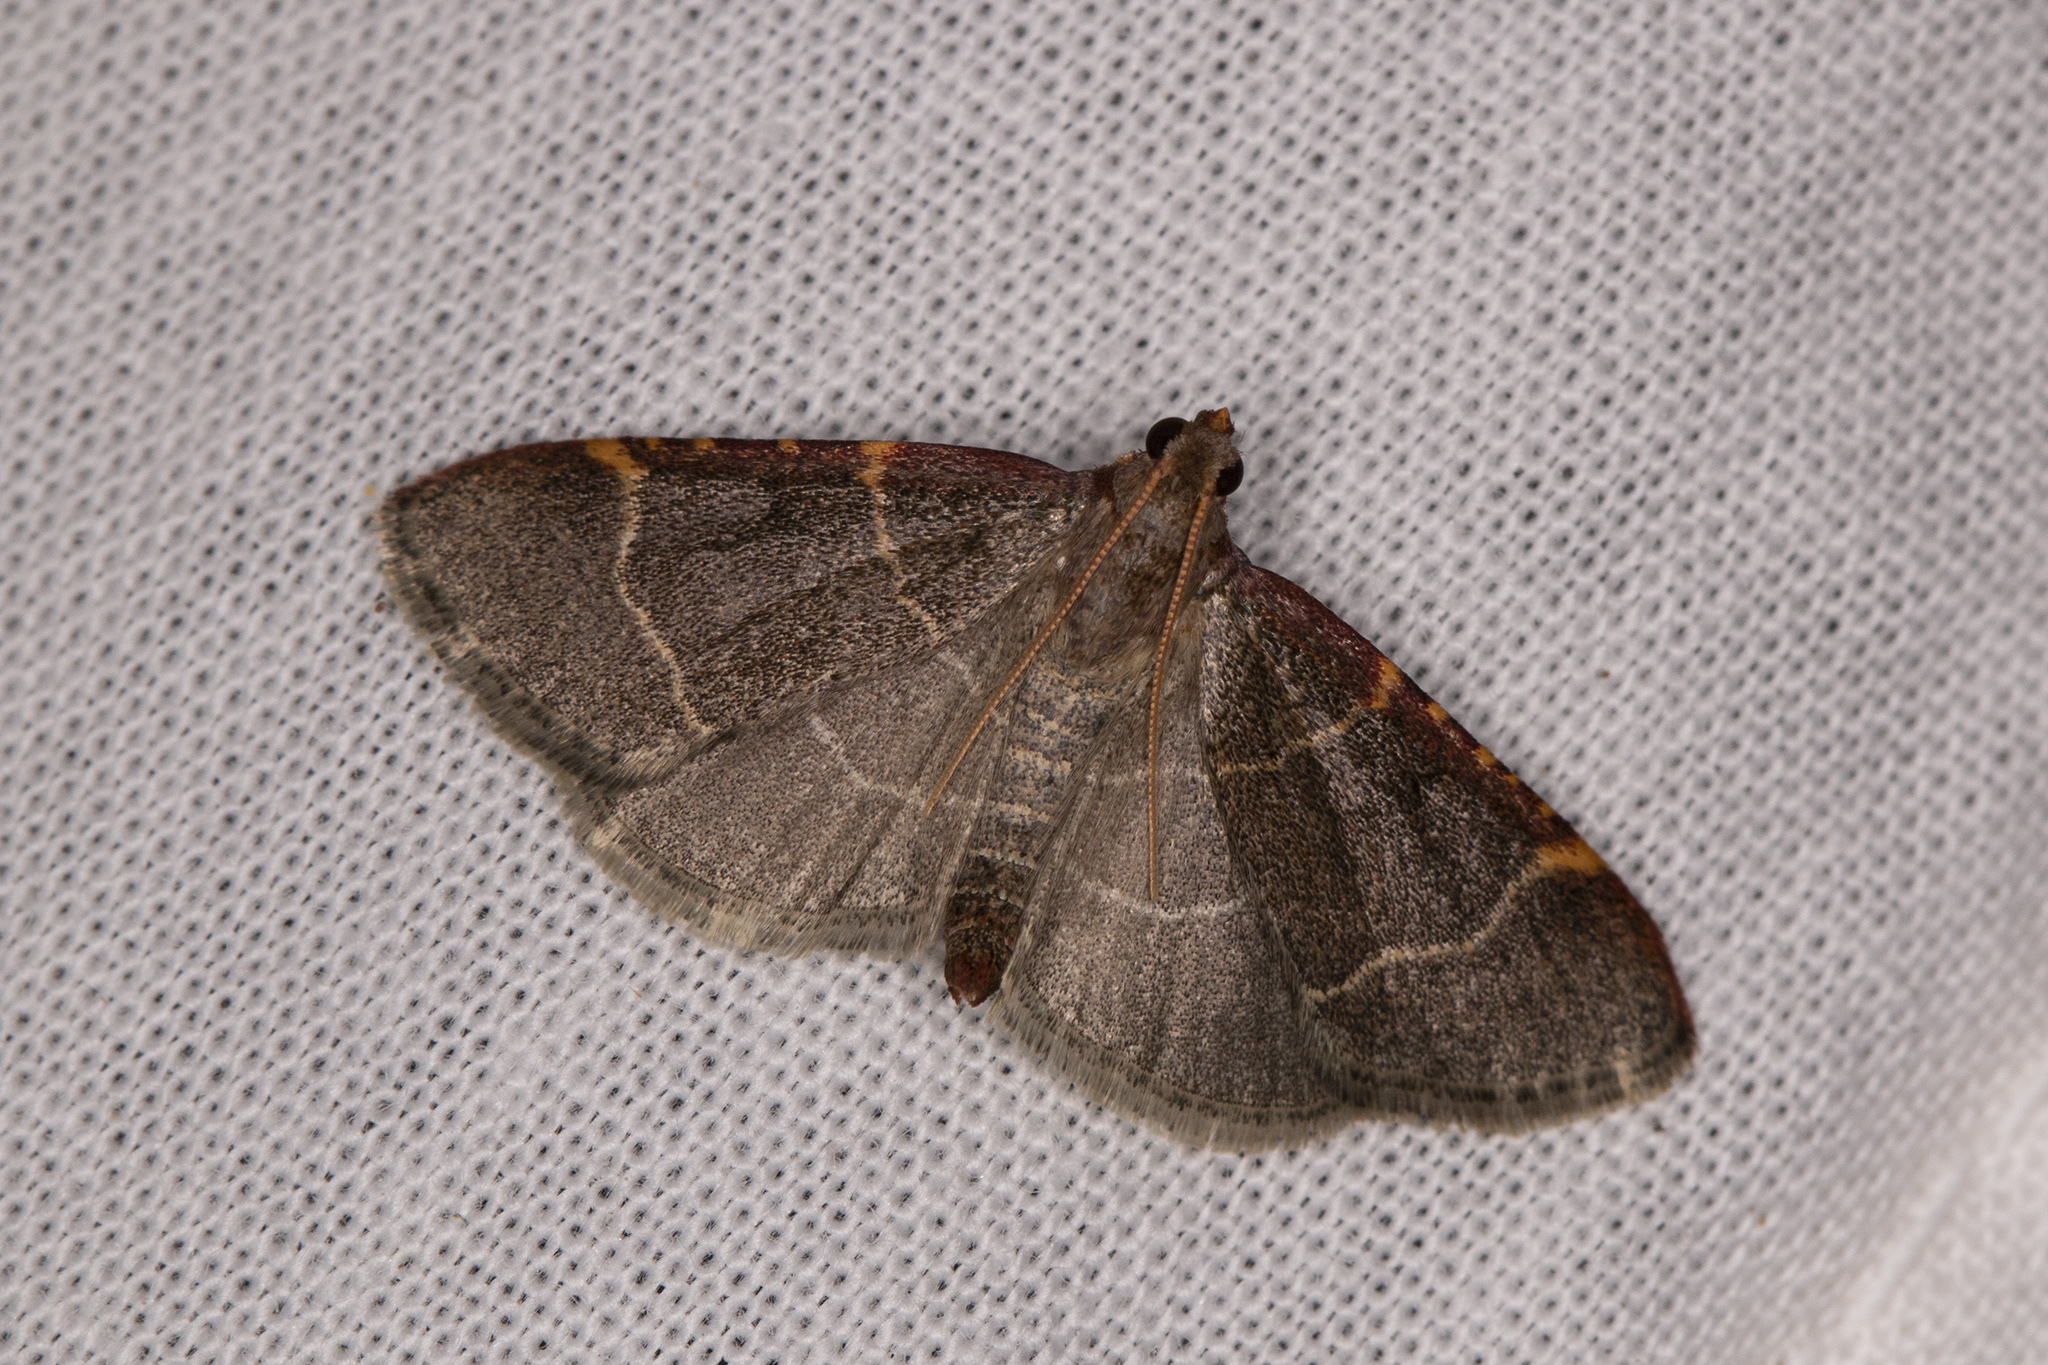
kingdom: Animalia
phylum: Arthropoda
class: Insecta
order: Lepidoptera
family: Pyralidae
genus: Hypsopygia
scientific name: Hypsopygia glaucinalis
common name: Double-striped tabby
